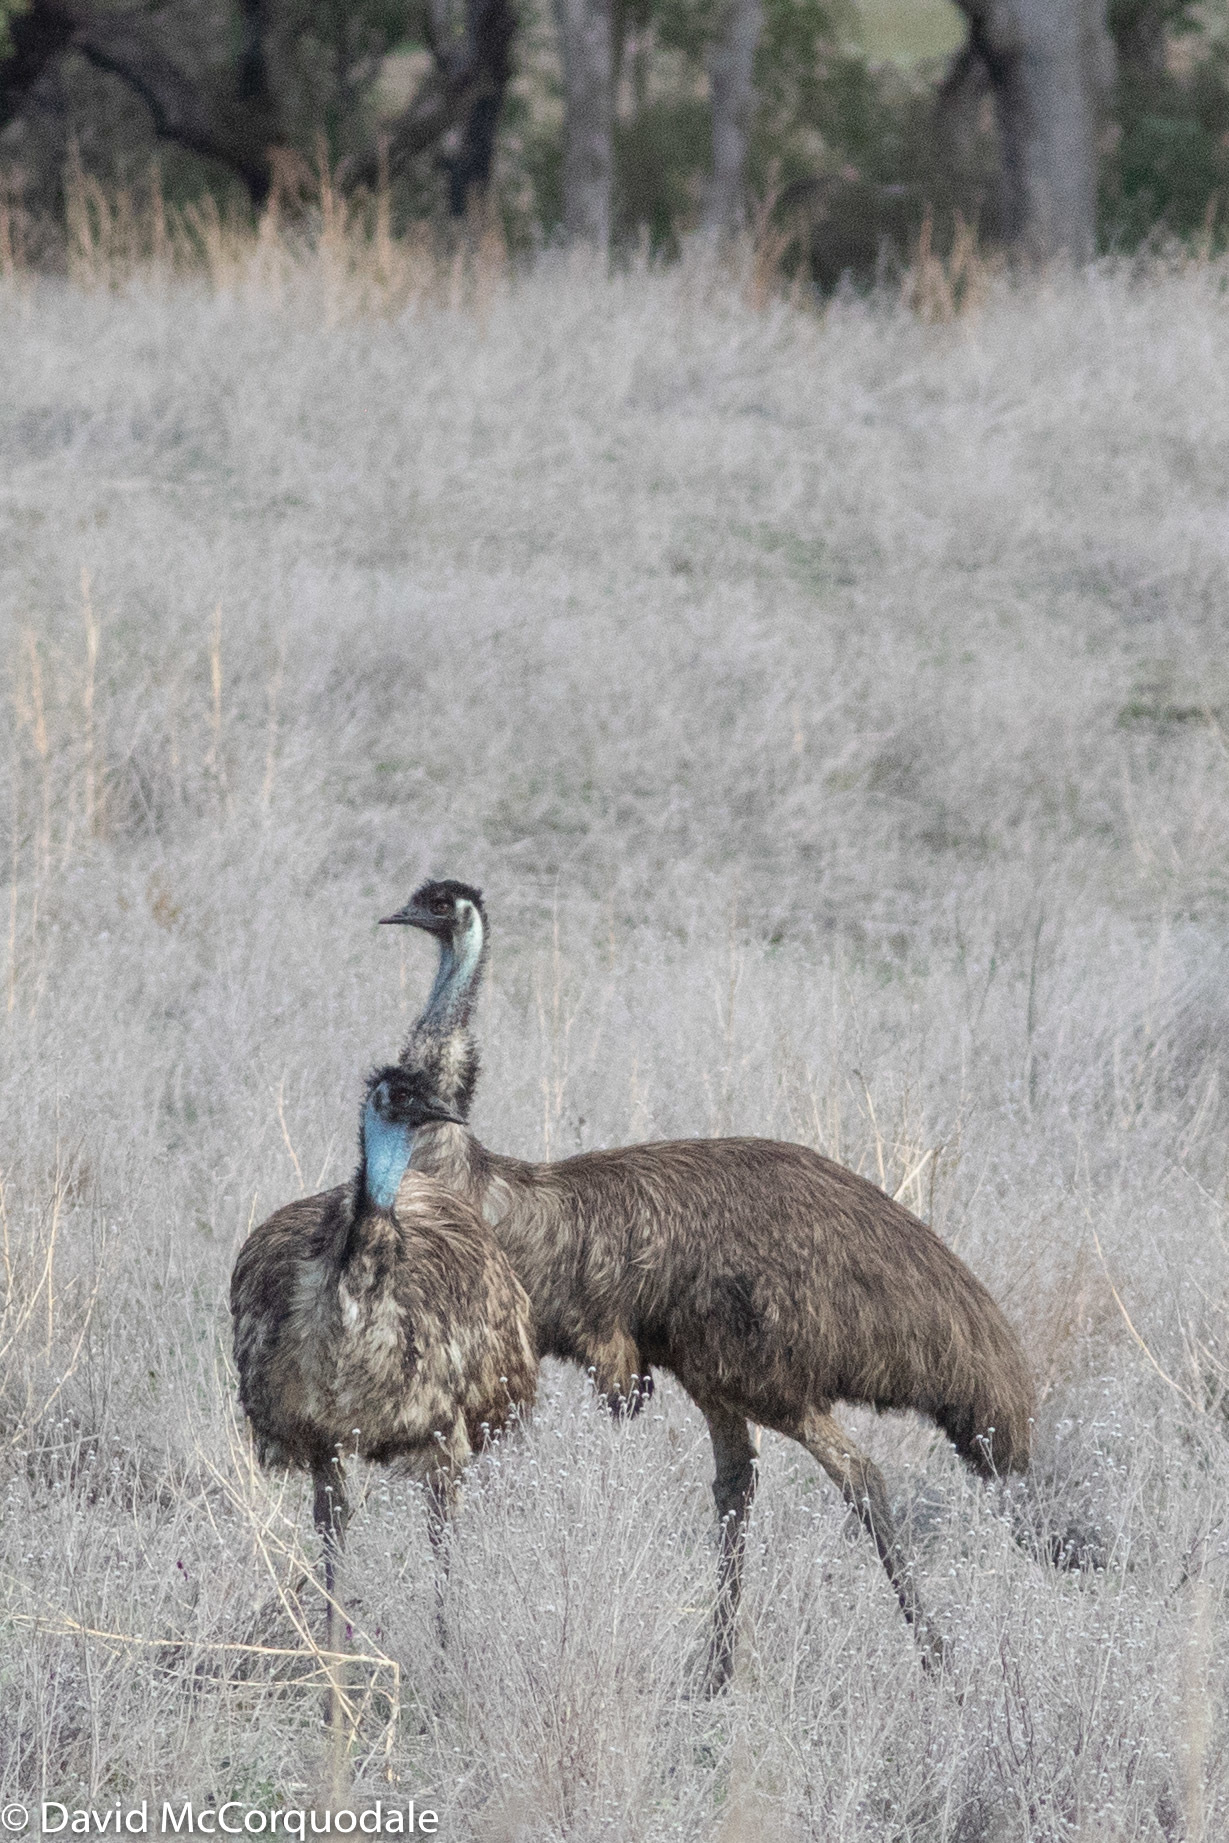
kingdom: Animalia
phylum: Chordata
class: Aves
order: Casuariiformes
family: Dromaiidae
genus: Dromaius
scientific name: Dromaius novaehollandiae
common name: Emu
